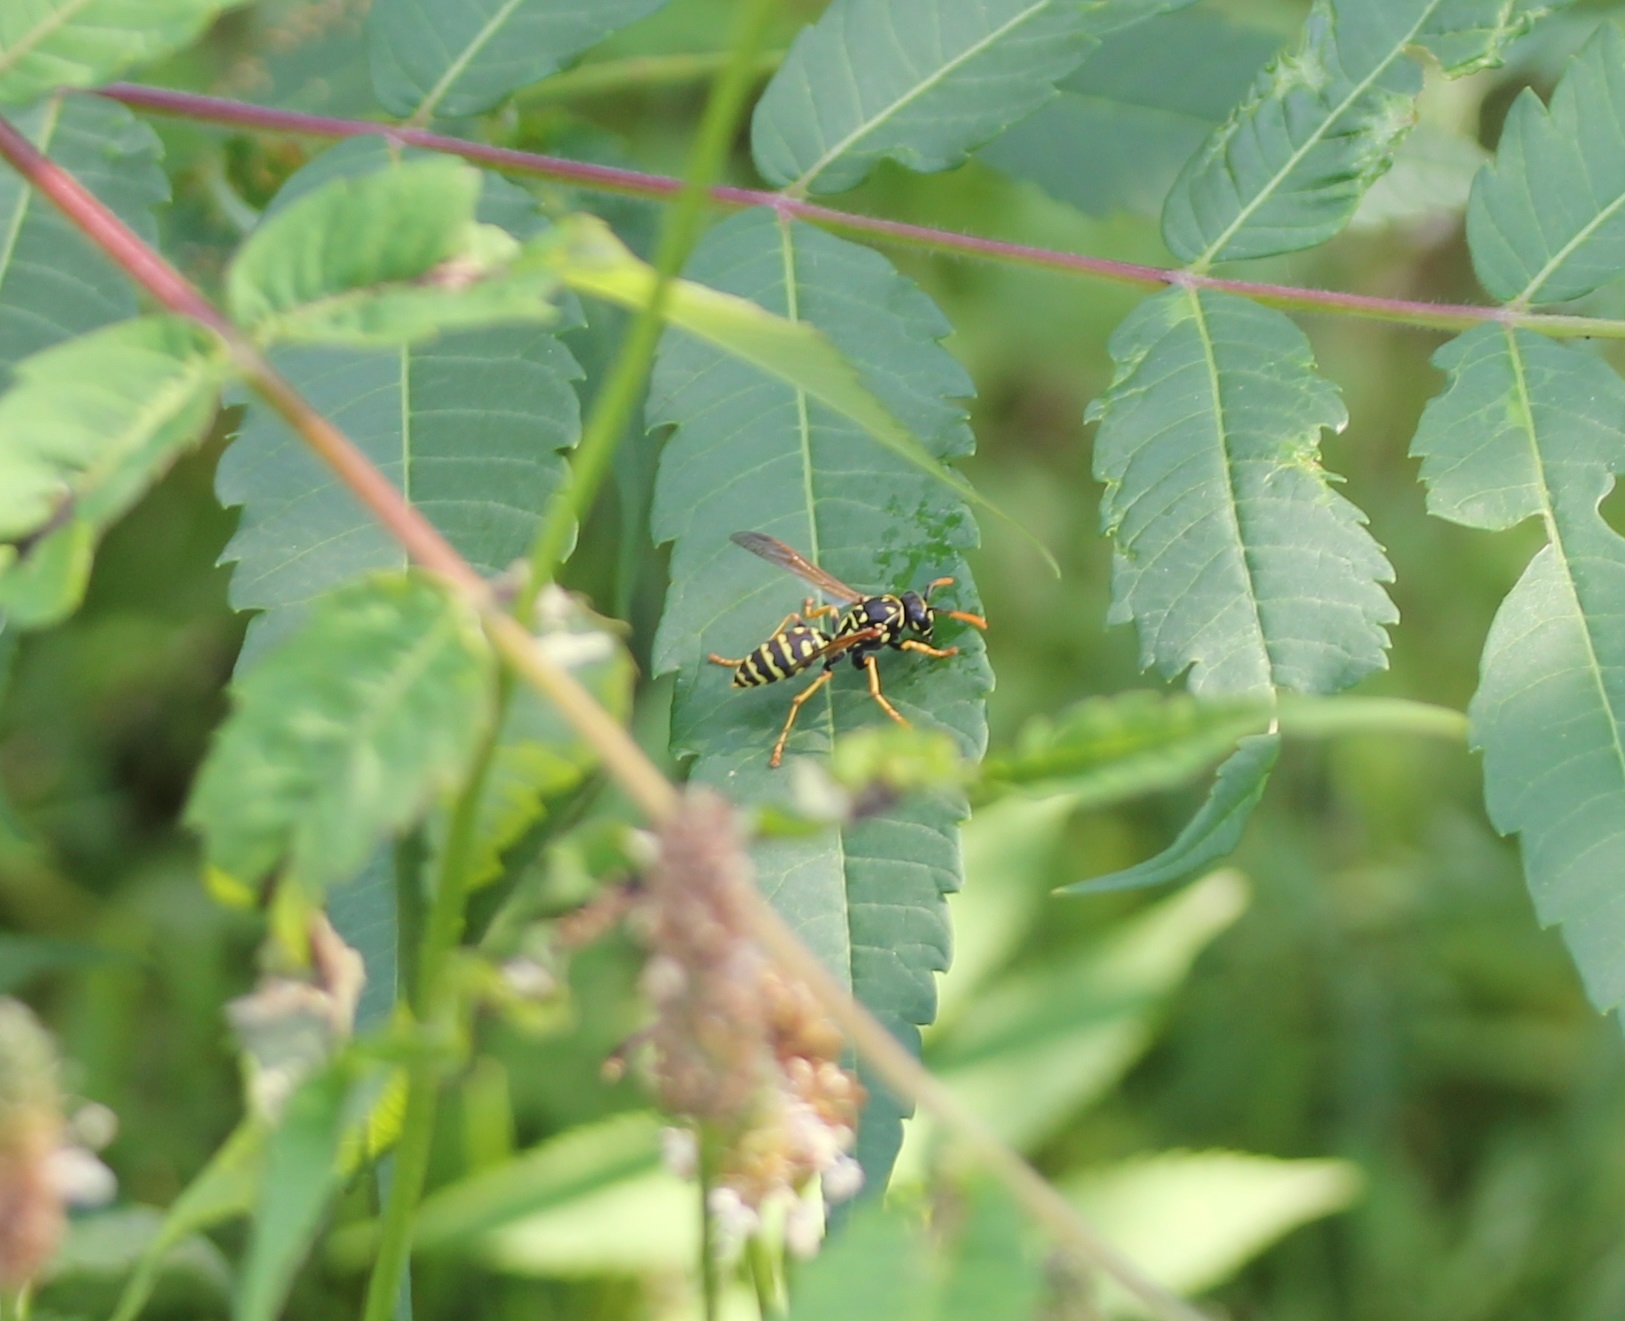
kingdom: Animalia
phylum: Arthropoda
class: Insecta
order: Hymenoptera
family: Eumenidae
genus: Polistes
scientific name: Polistes dominula
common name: Paper wasp
